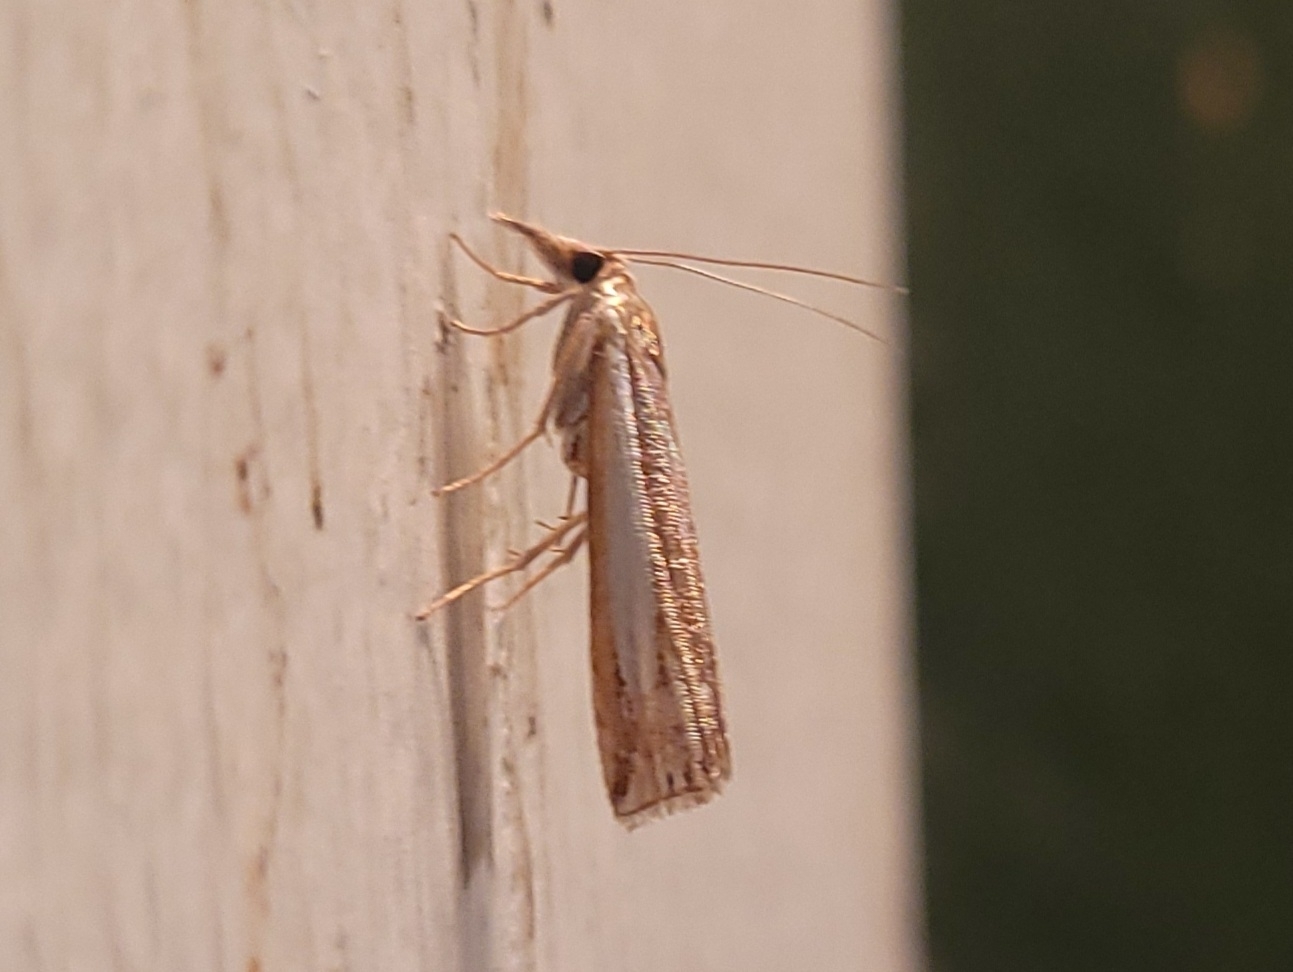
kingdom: Animalia
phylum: Arthropoda
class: Insecta
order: Lepidoptera
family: Crambidae
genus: Crambus
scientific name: Crambus praefectellus
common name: Common grass-veneer
